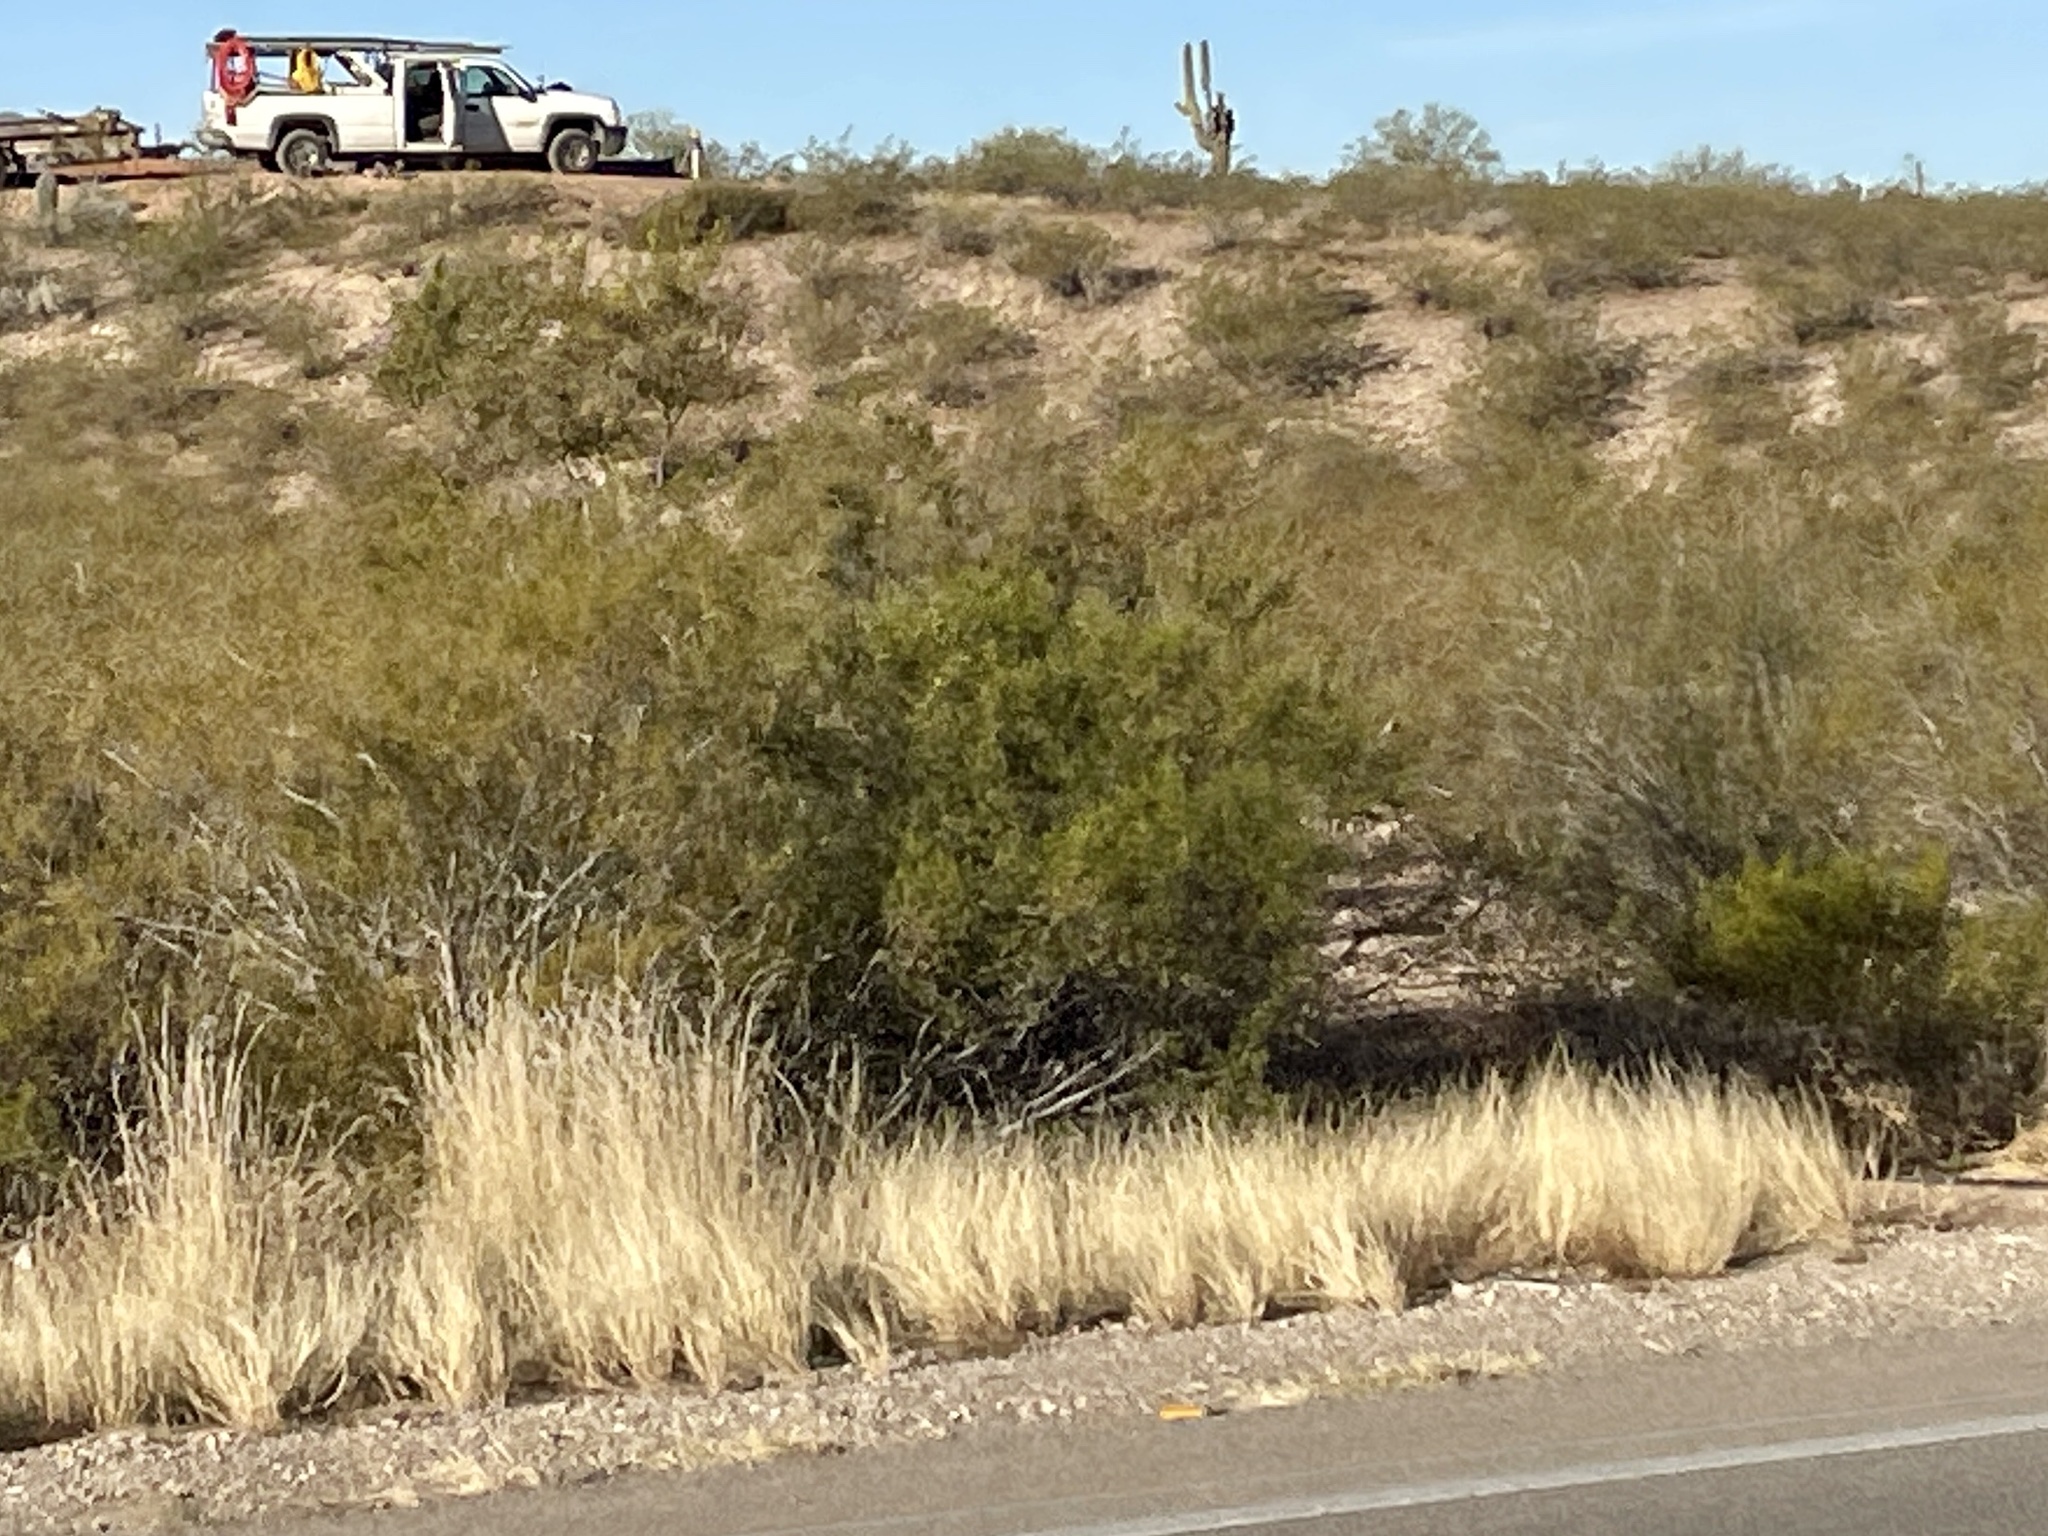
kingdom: Plantae
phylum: Tracheophyta
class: Magnoliopsida
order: Zygophyllales
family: Zygophyllaceae
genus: Larrea
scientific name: Larrea tridentata
